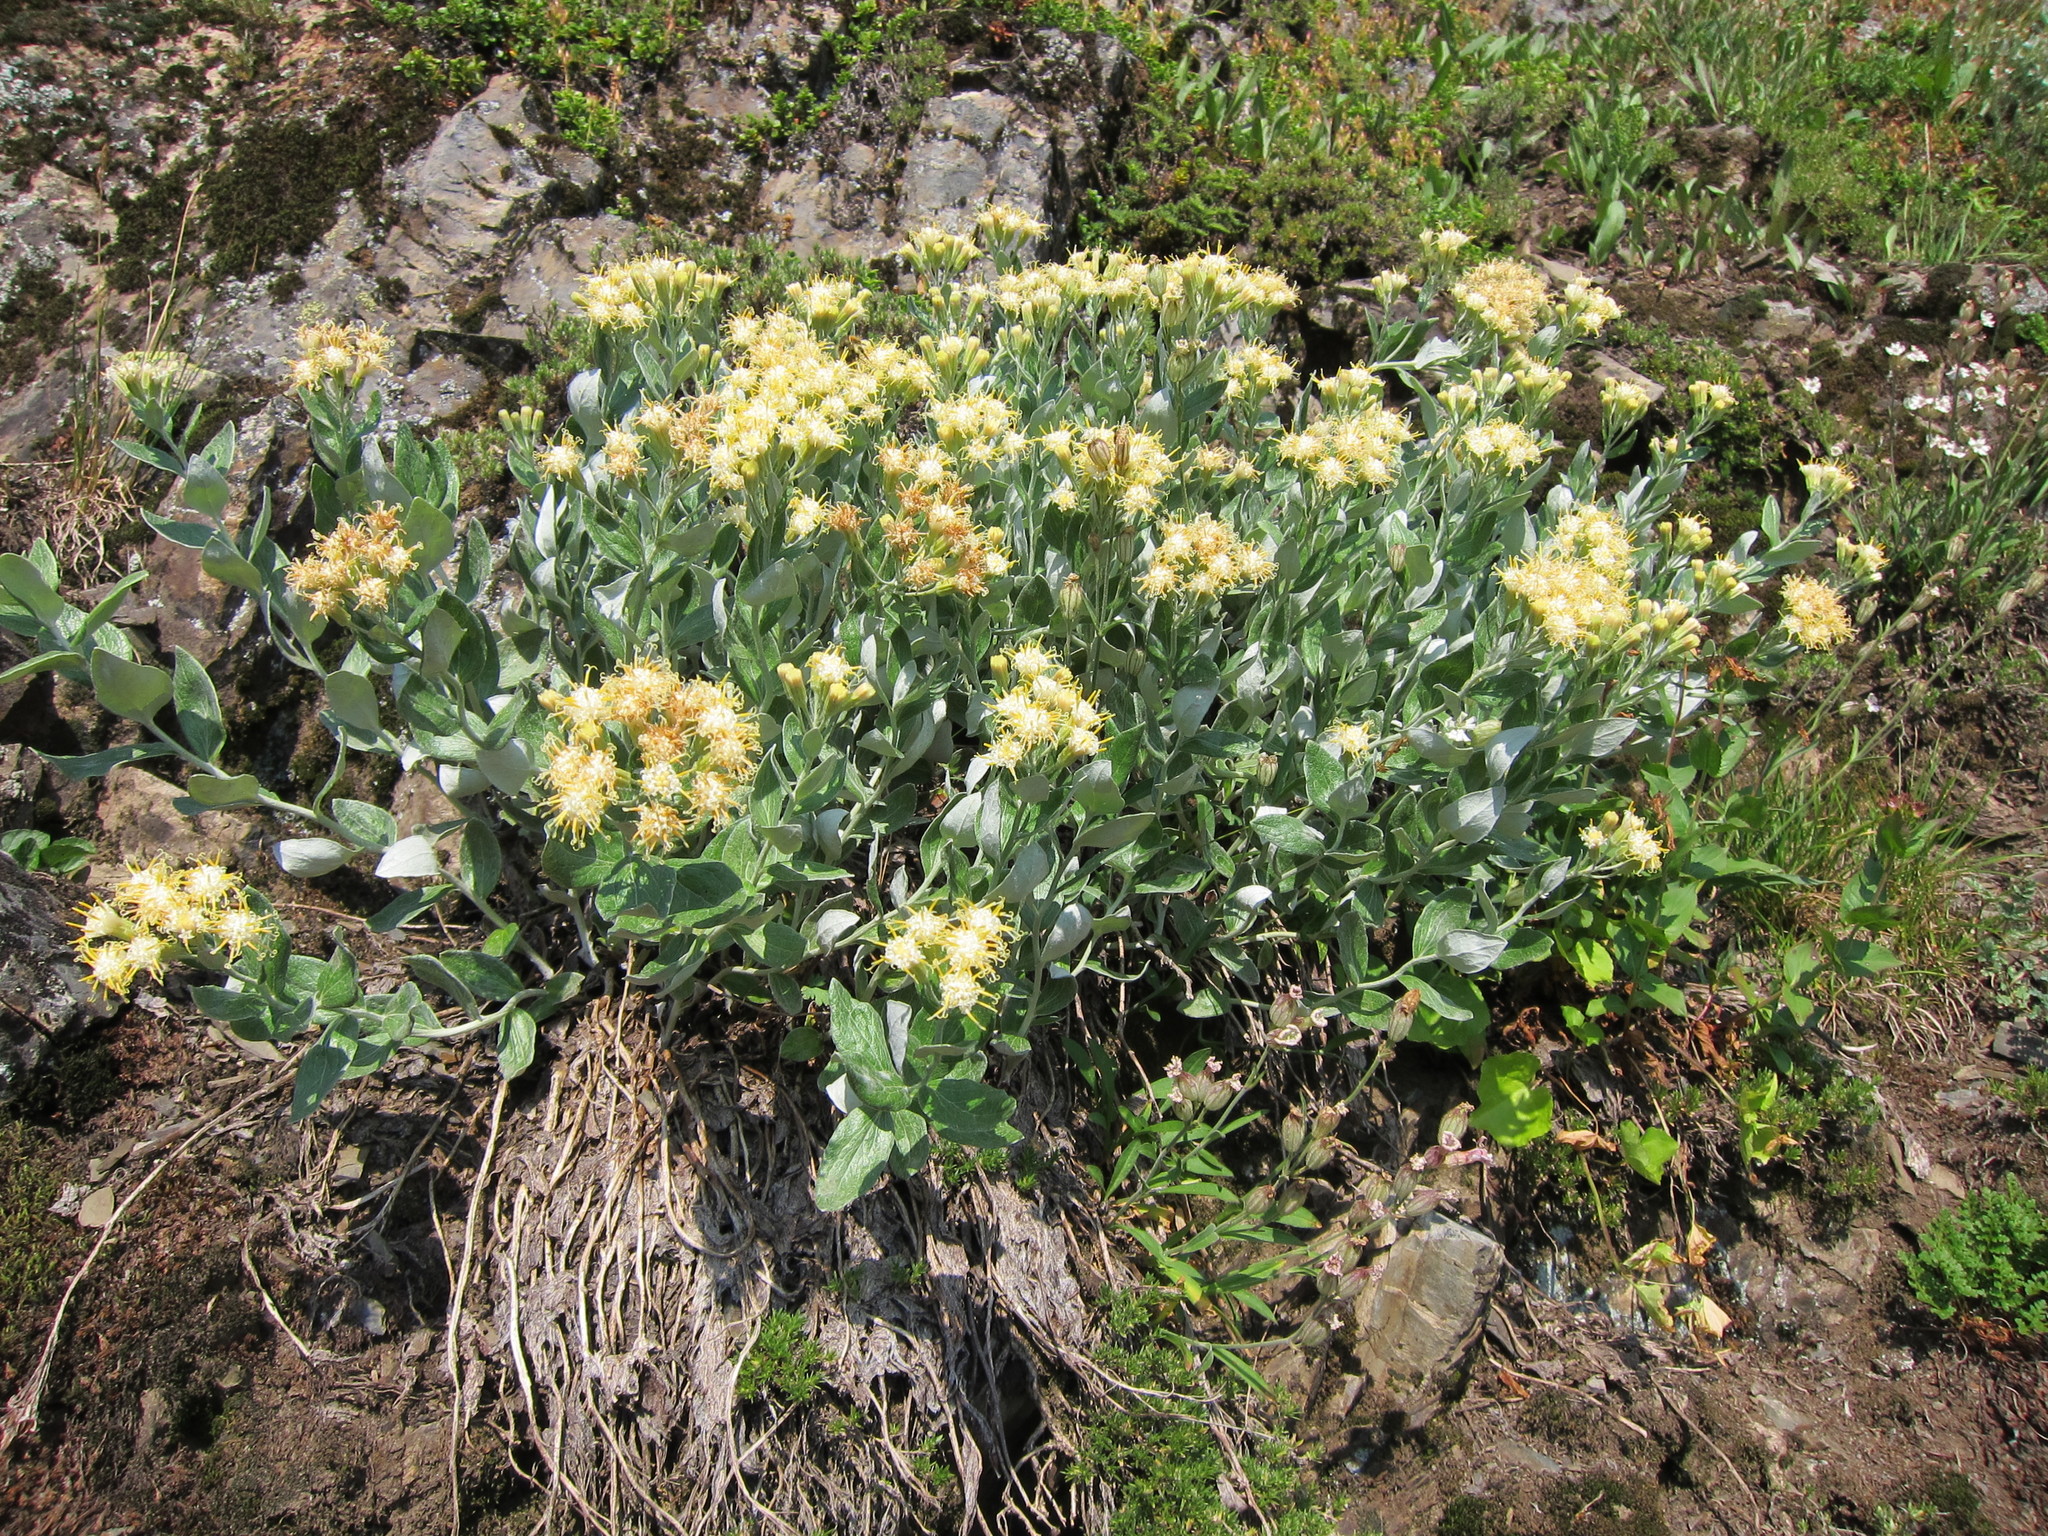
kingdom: Plantae
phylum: Tracheophyta
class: Magnoliopsida
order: Asterales
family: Asteraceae
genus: Luina
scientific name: Luina hypoleuca
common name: Little-leaved luina
